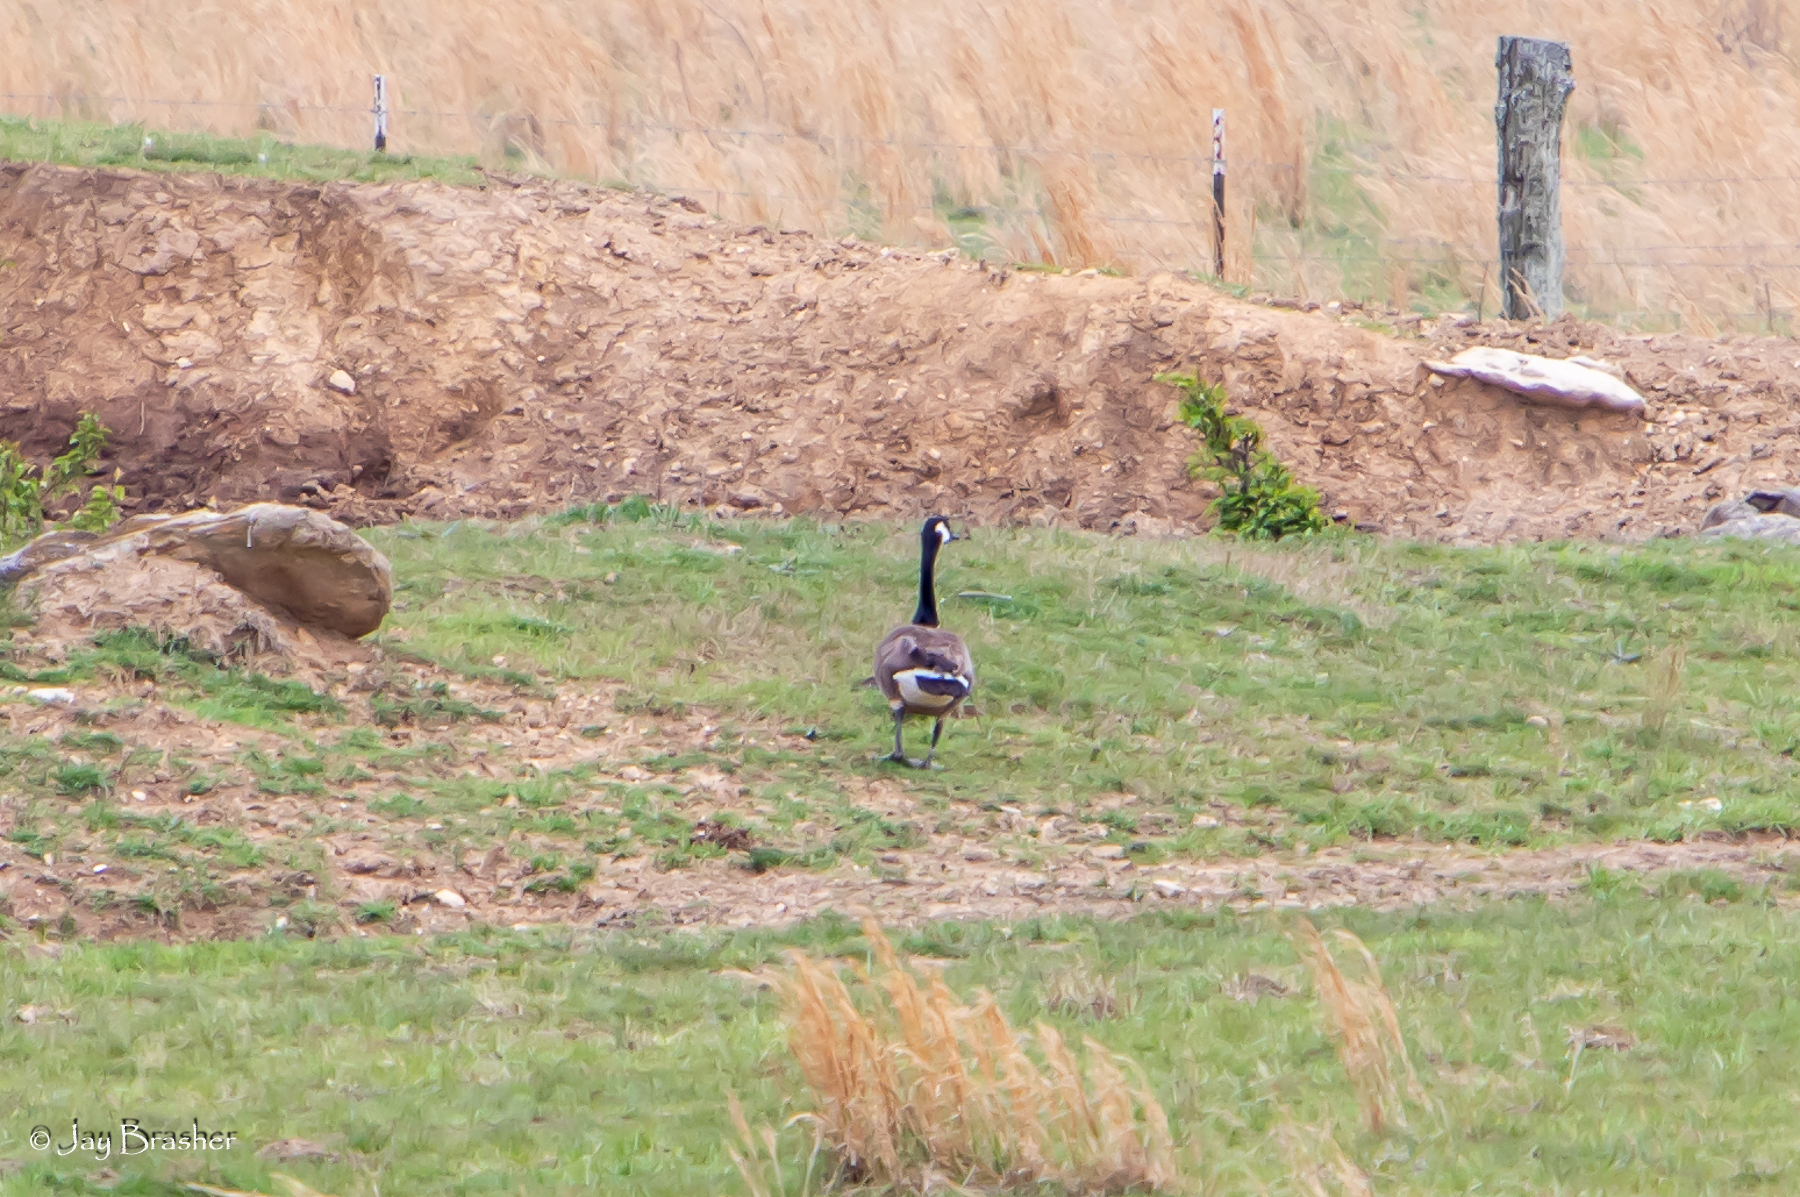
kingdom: Animalia
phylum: Chordata
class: Aves
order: Anseriformes
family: Anatidae
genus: Branta
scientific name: Branta canadensis
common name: Canada goose
